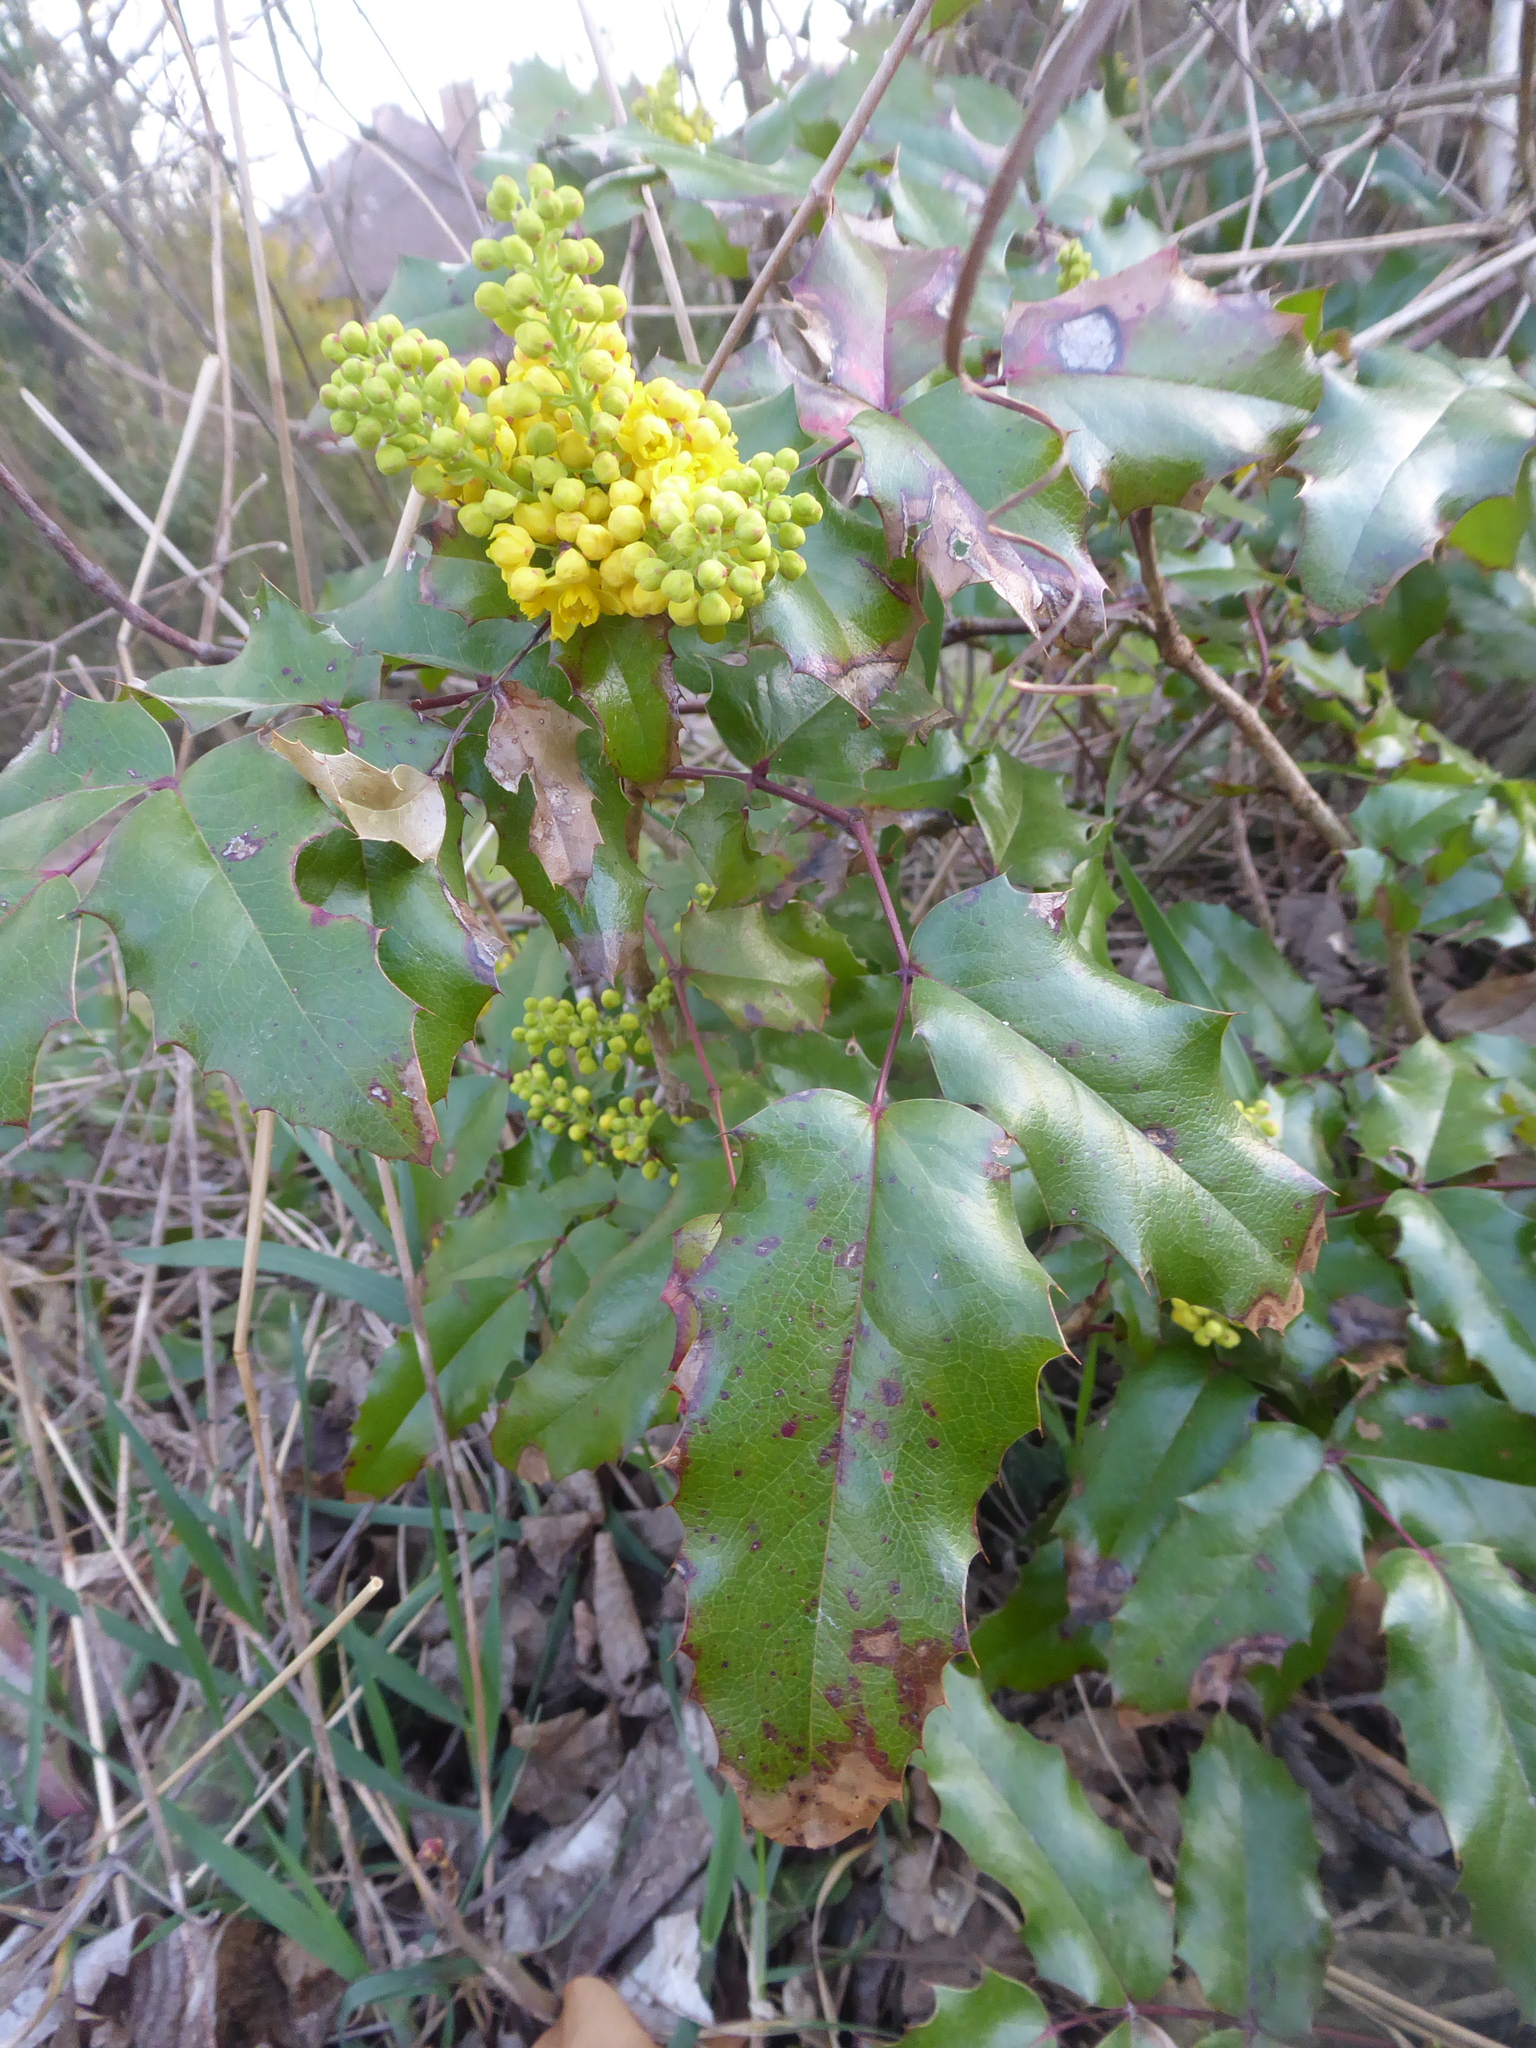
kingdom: Plantae
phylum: Tracheophyta
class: Magnoliopsida
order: Ranunculales
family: Berberidaceae
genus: Mahonia
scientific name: Mahonia aquifolium
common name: Oregon-grape
